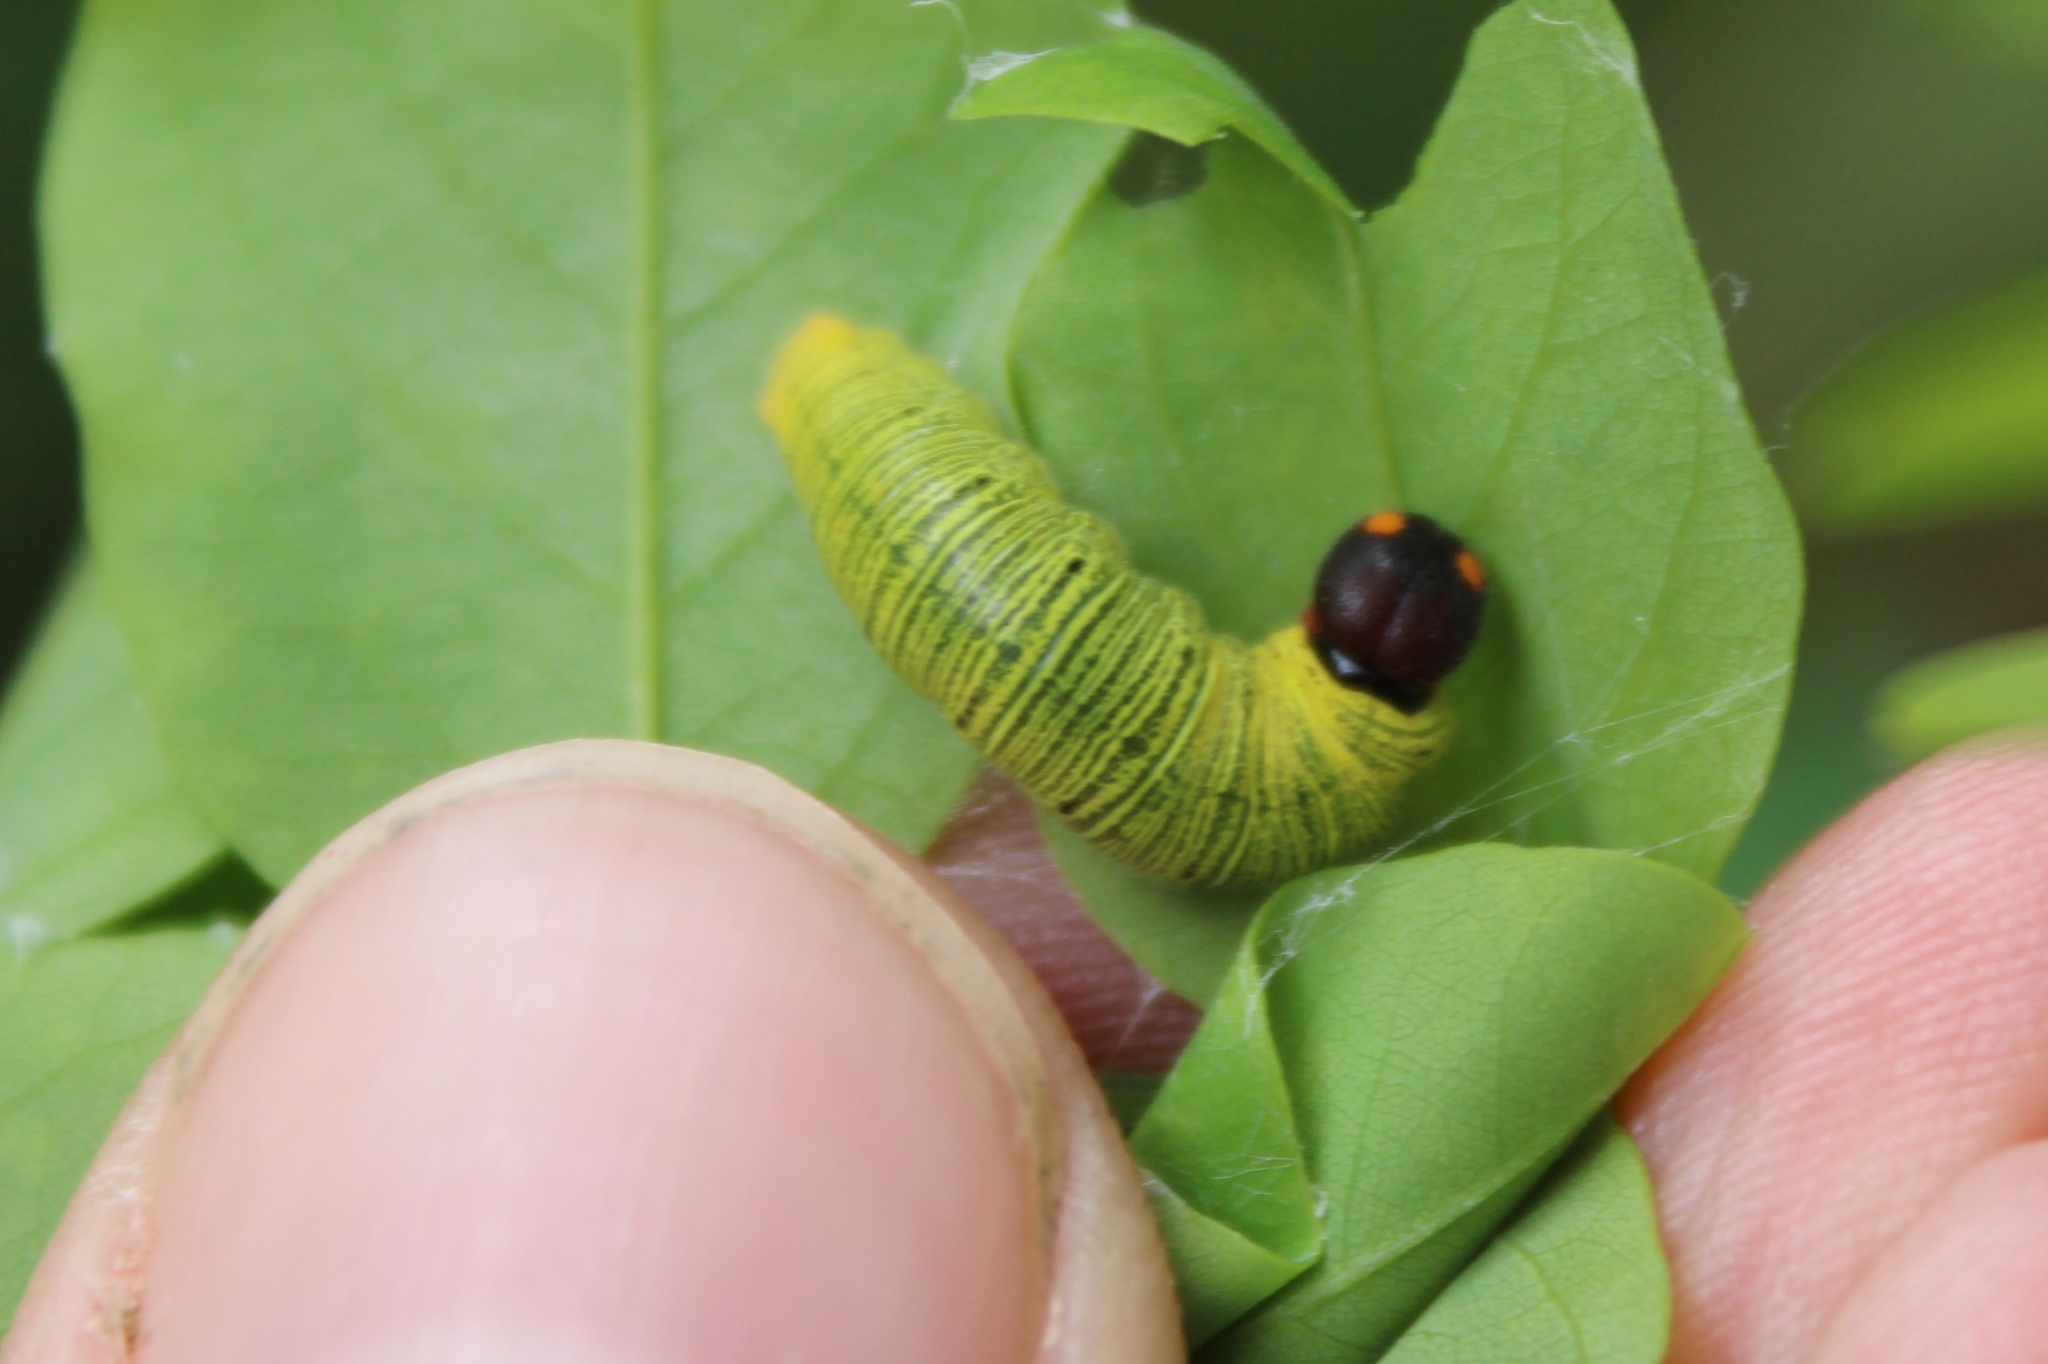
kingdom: Animalia
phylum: Arthropoda
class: Insecta
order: Lepidoptera
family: Hesperiidae
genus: Epargyreus
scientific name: Epargyreus clarus
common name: Silver-spotted skipper
